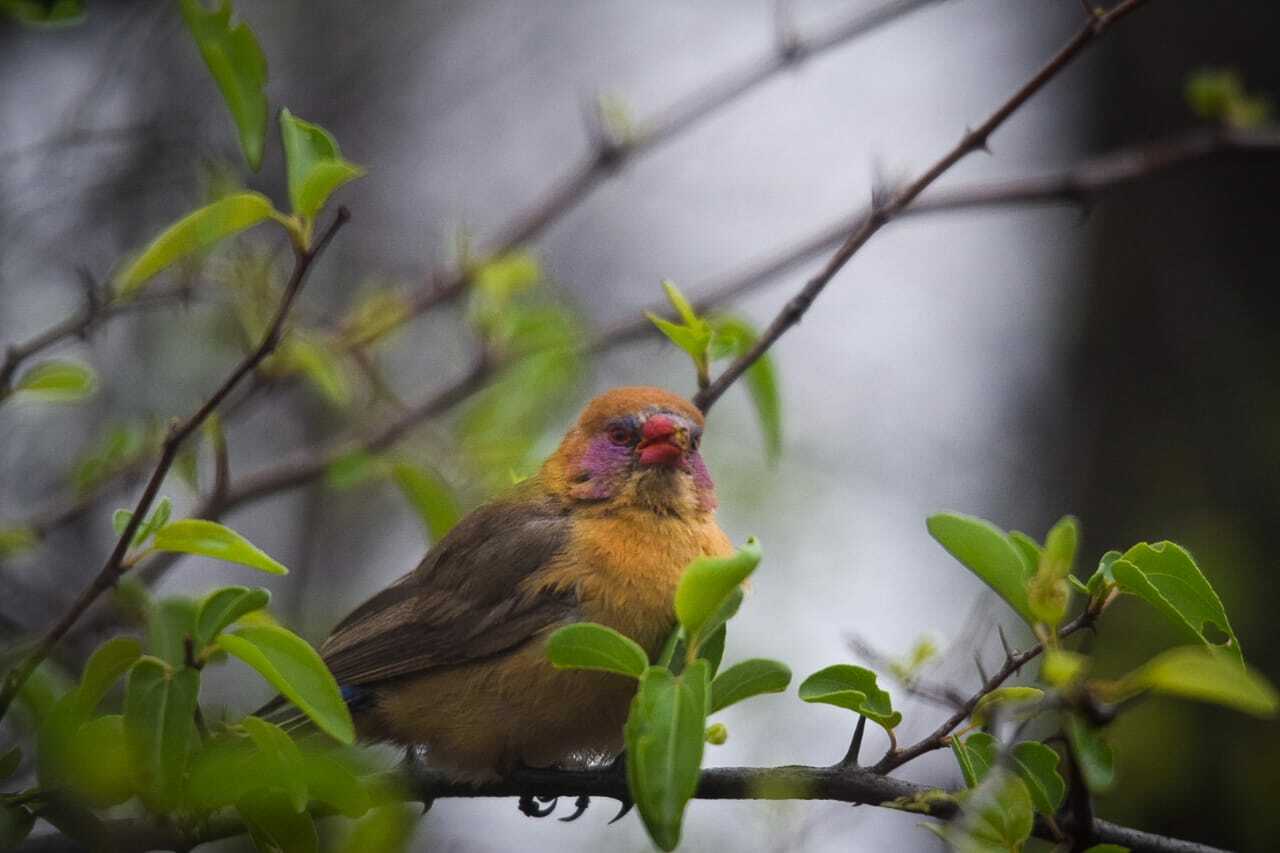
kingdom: Animalia
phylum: Chordata
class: Aves
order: Passeriformes
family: Estrildidae
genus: Uraeginthus
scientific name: Uraeginthus granatinus
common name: Violet-eared waxbill
